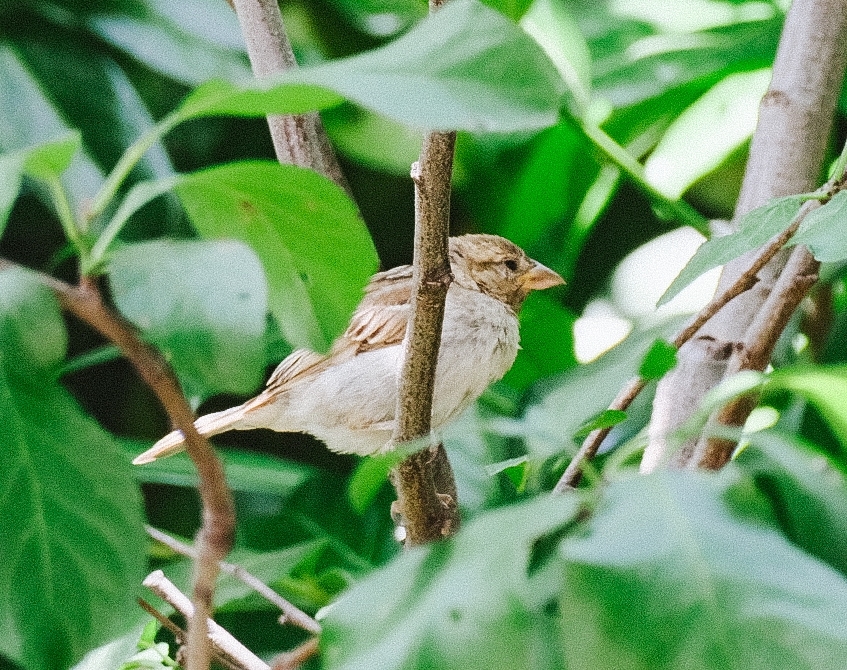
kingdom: Animalia
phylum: Chordata
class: Aves
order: Passeriformes
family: Passeridae
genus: Passer
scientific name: Passer domesticus
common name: House sparrow
